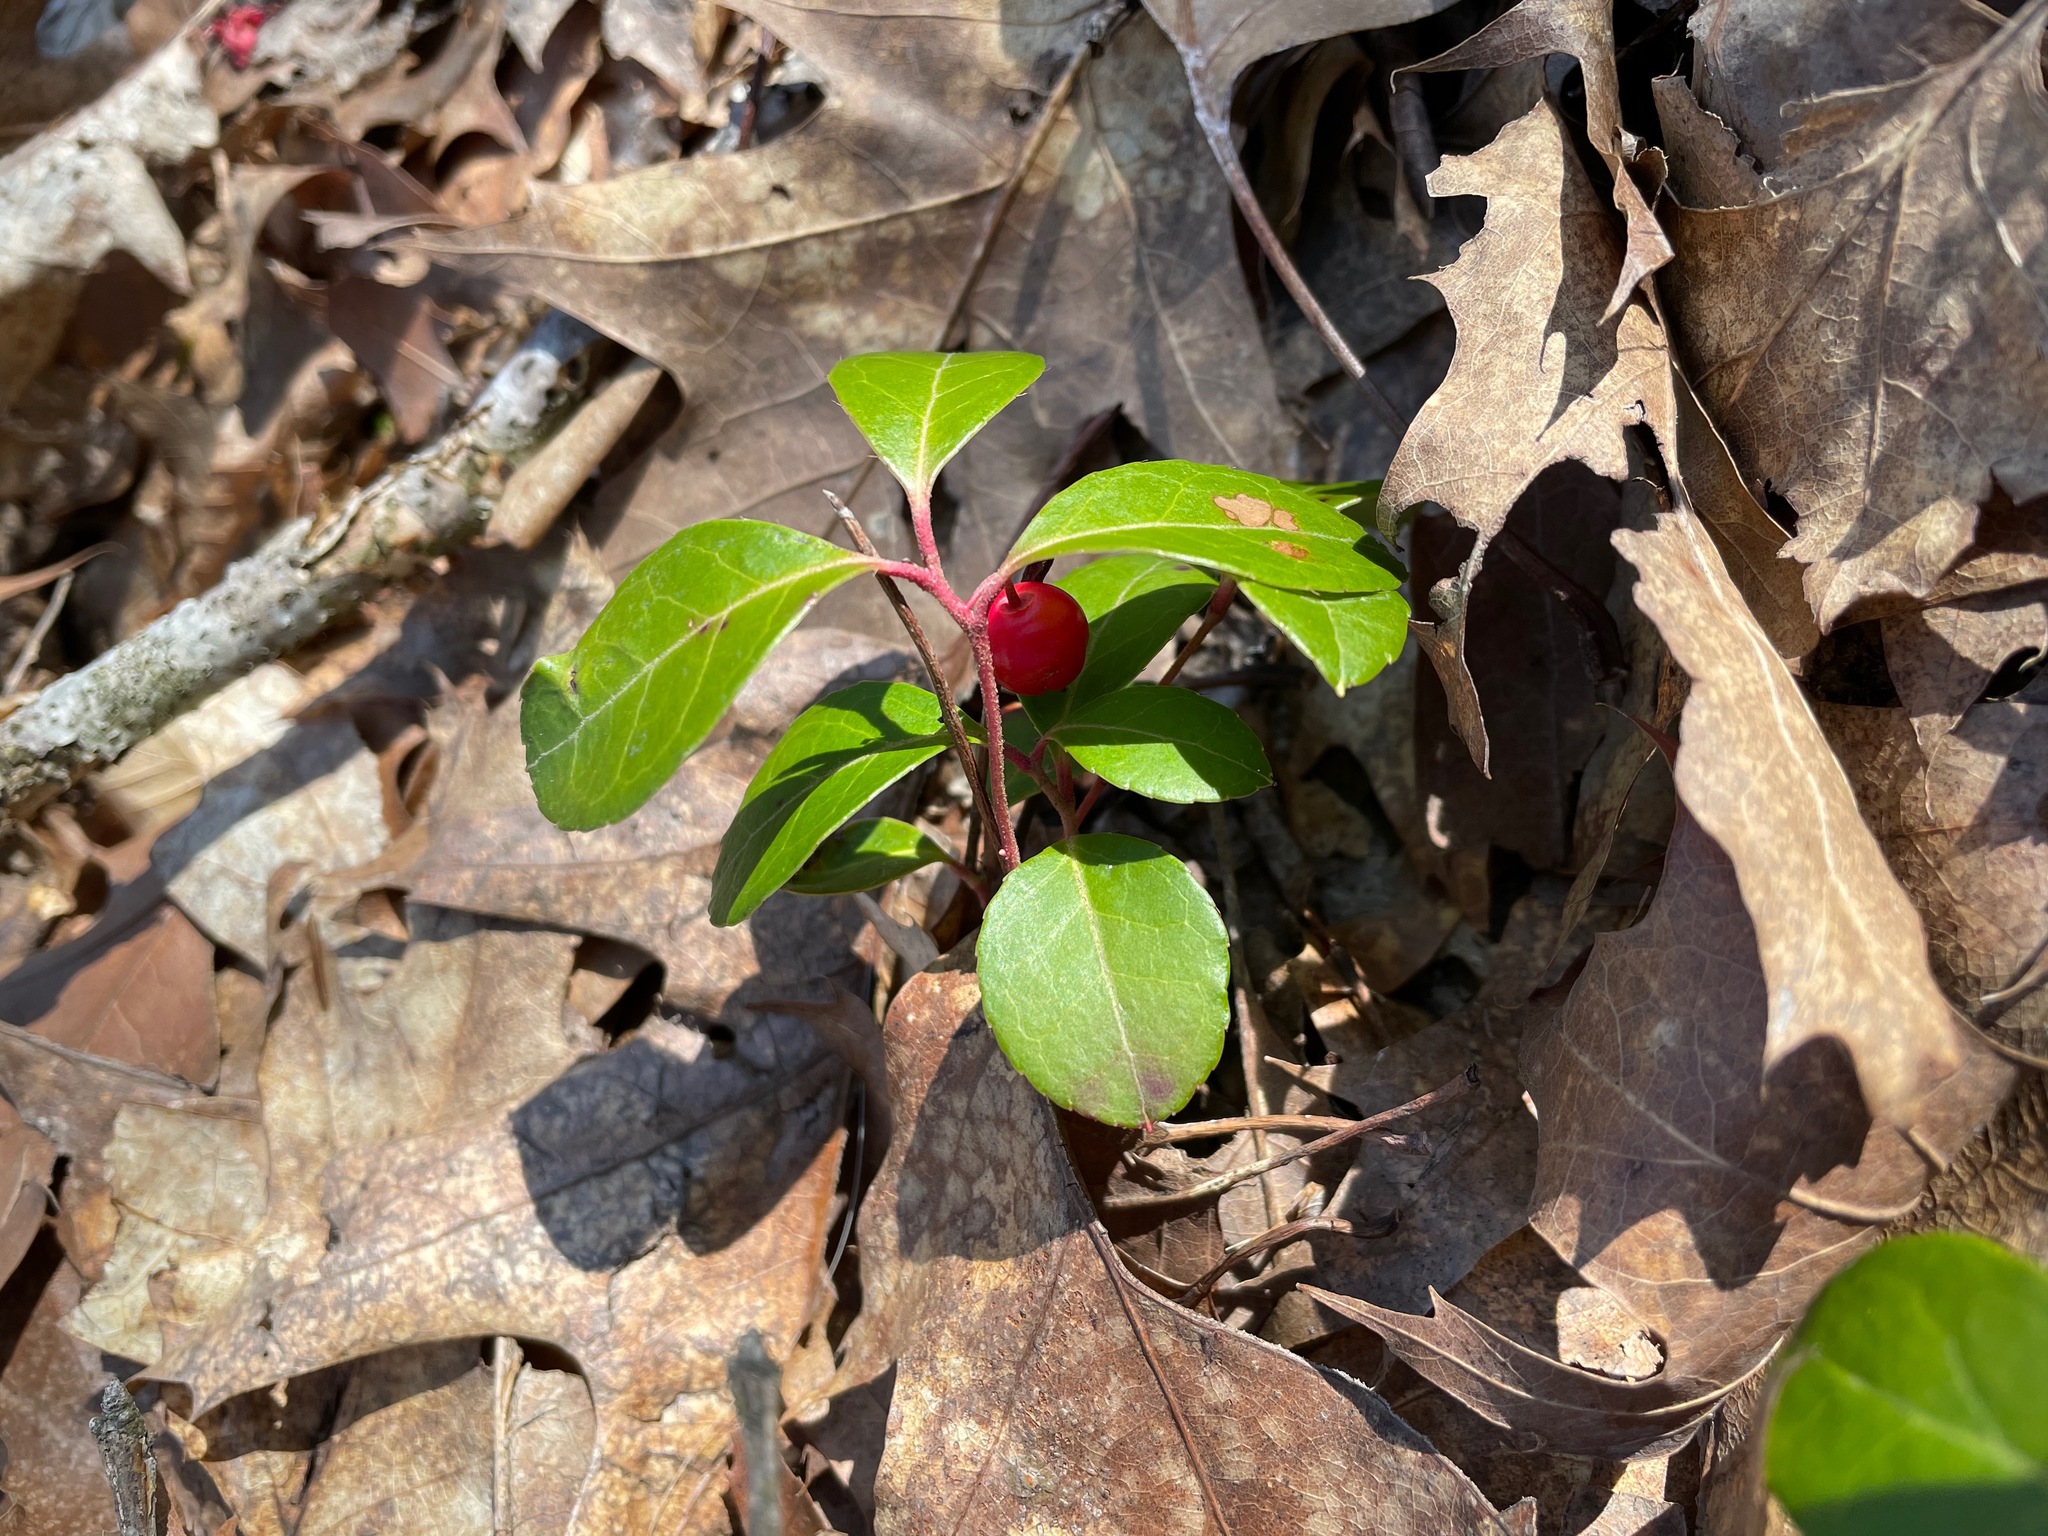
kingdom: Plantae
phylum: Tracheophyta
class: Magnoliopsida
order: Ericales
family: Ericaceae
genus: Gaultheria
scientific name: Gaultheria procumbens
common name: Checkerberry
